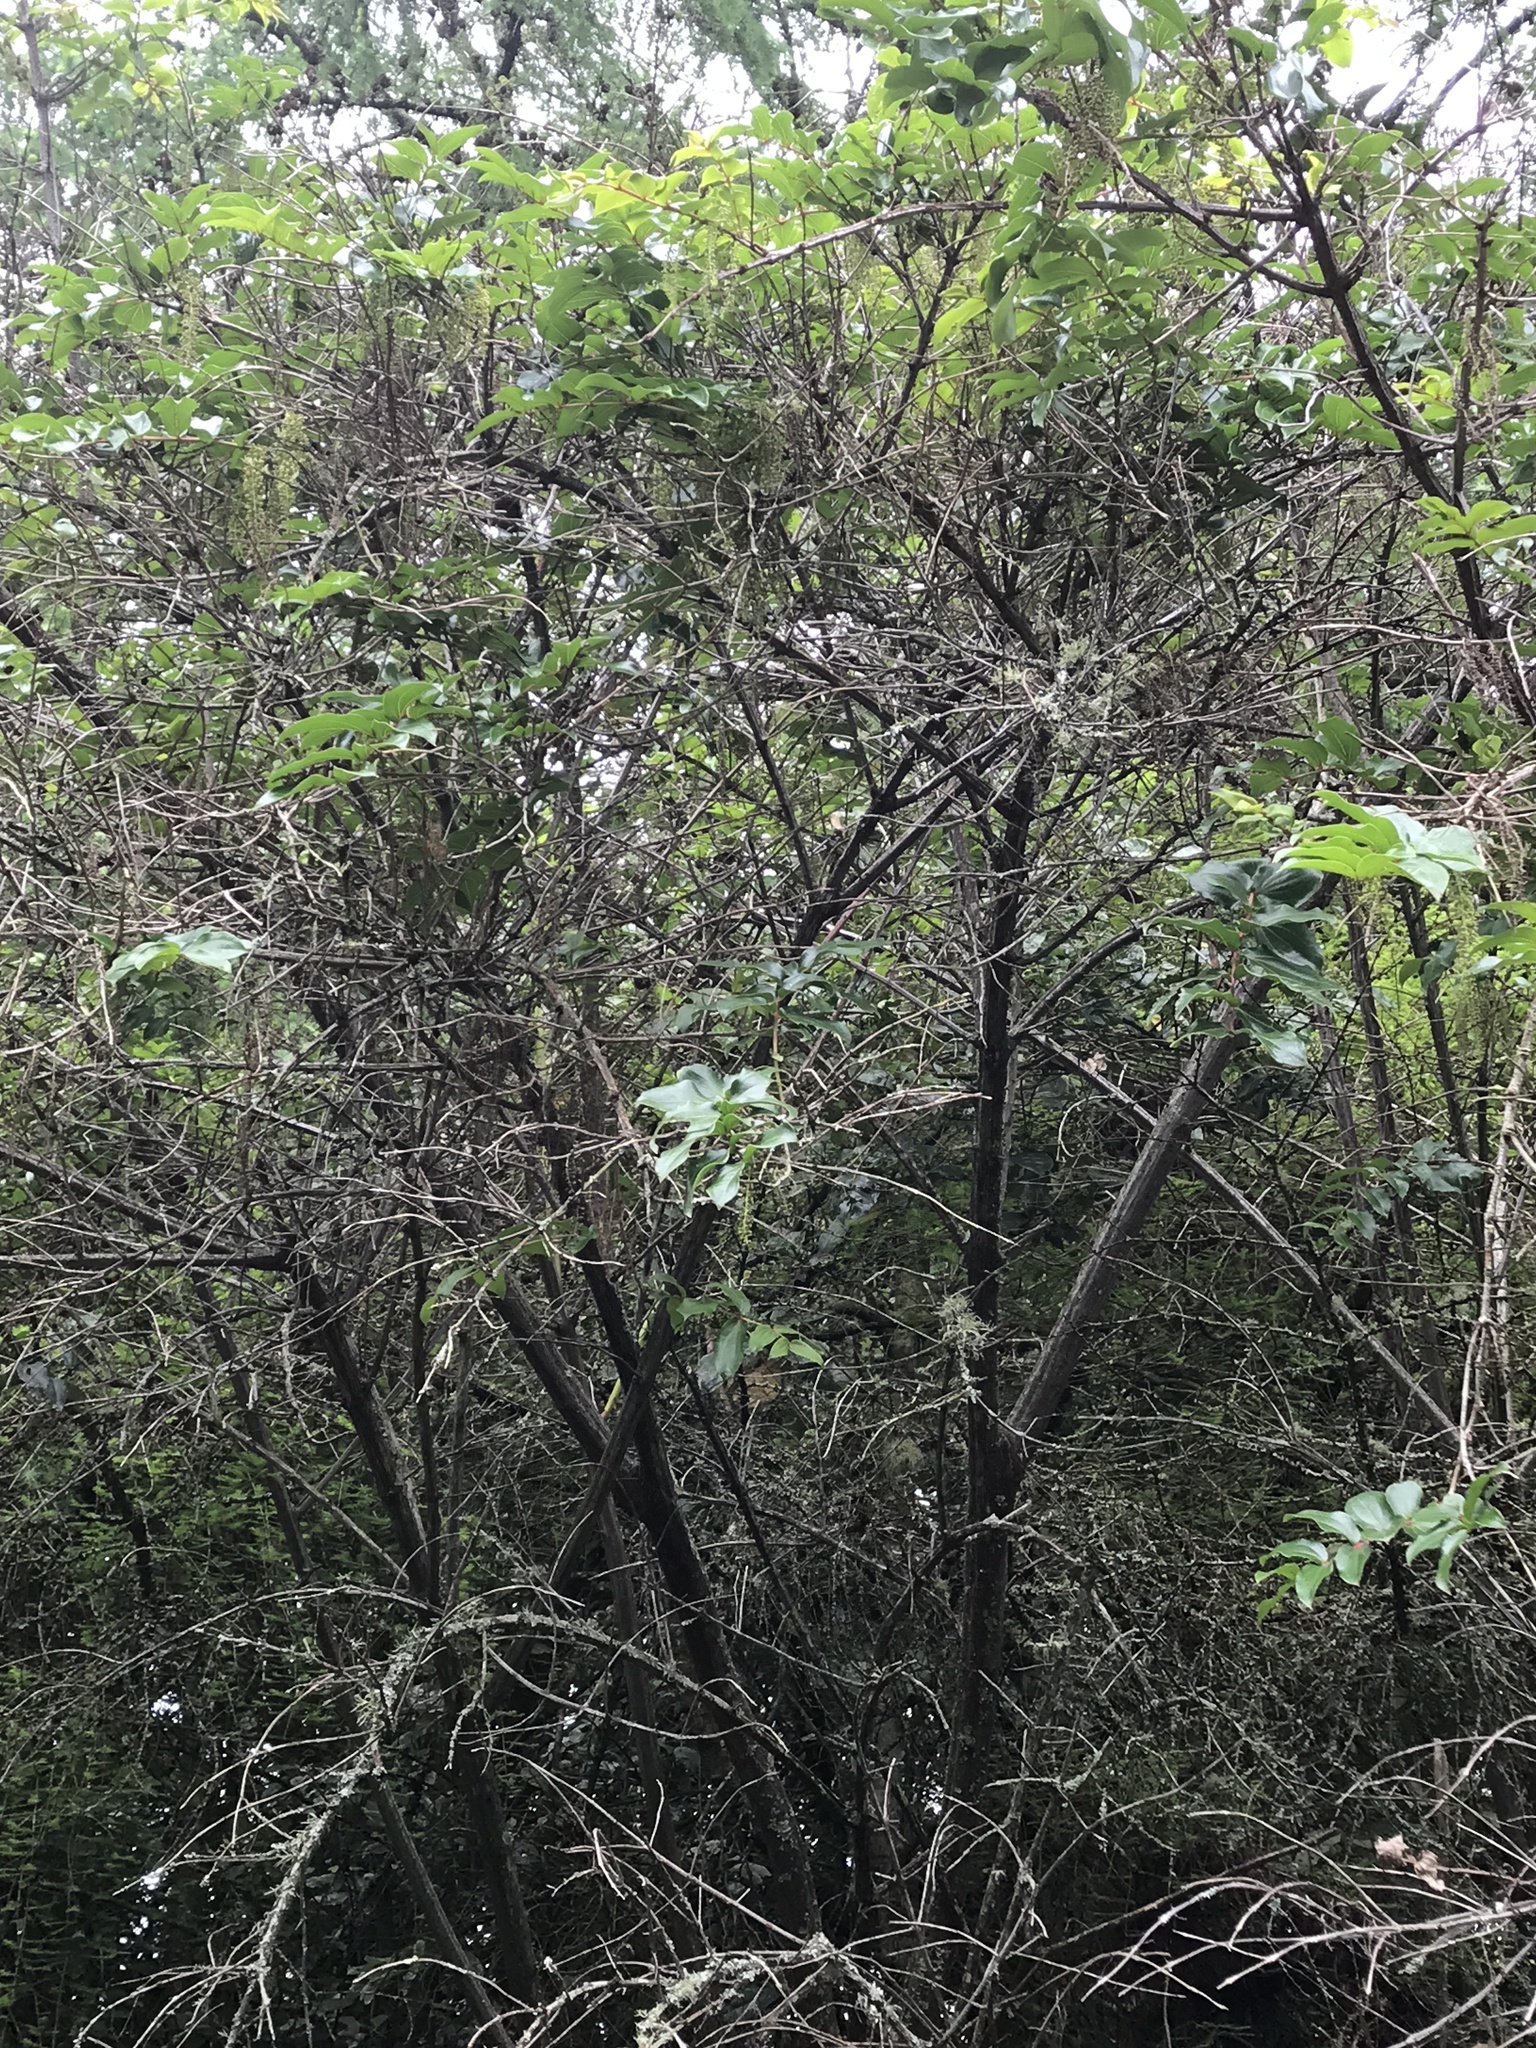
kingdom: Plantae
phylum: Tracheophyta
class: Magnoliopsida
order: Cucurbitales
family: Coriariaceae
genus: Coriaria
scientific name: Coriaria arborea
